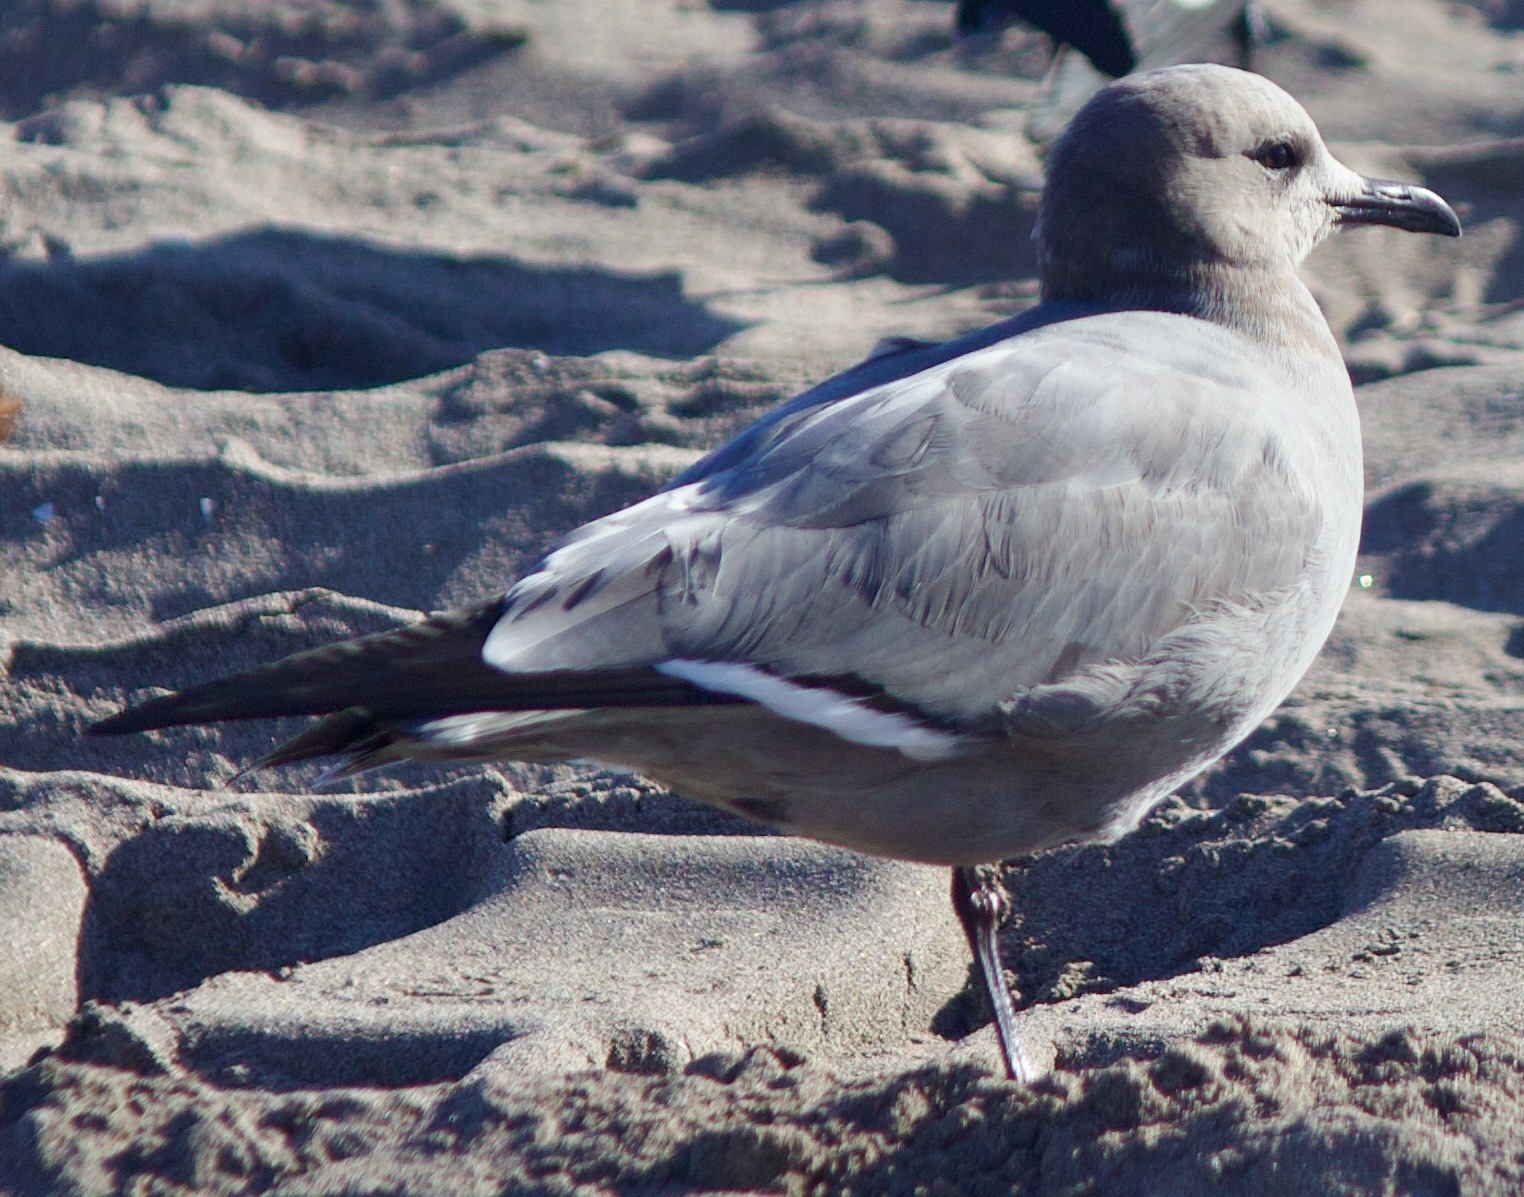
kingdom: Animalia
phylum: Chordata
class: Aves
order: Charadriiformes
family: Laridae
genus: Leucophaeus
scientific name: Leucophaeus modestus
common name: Gray gull
